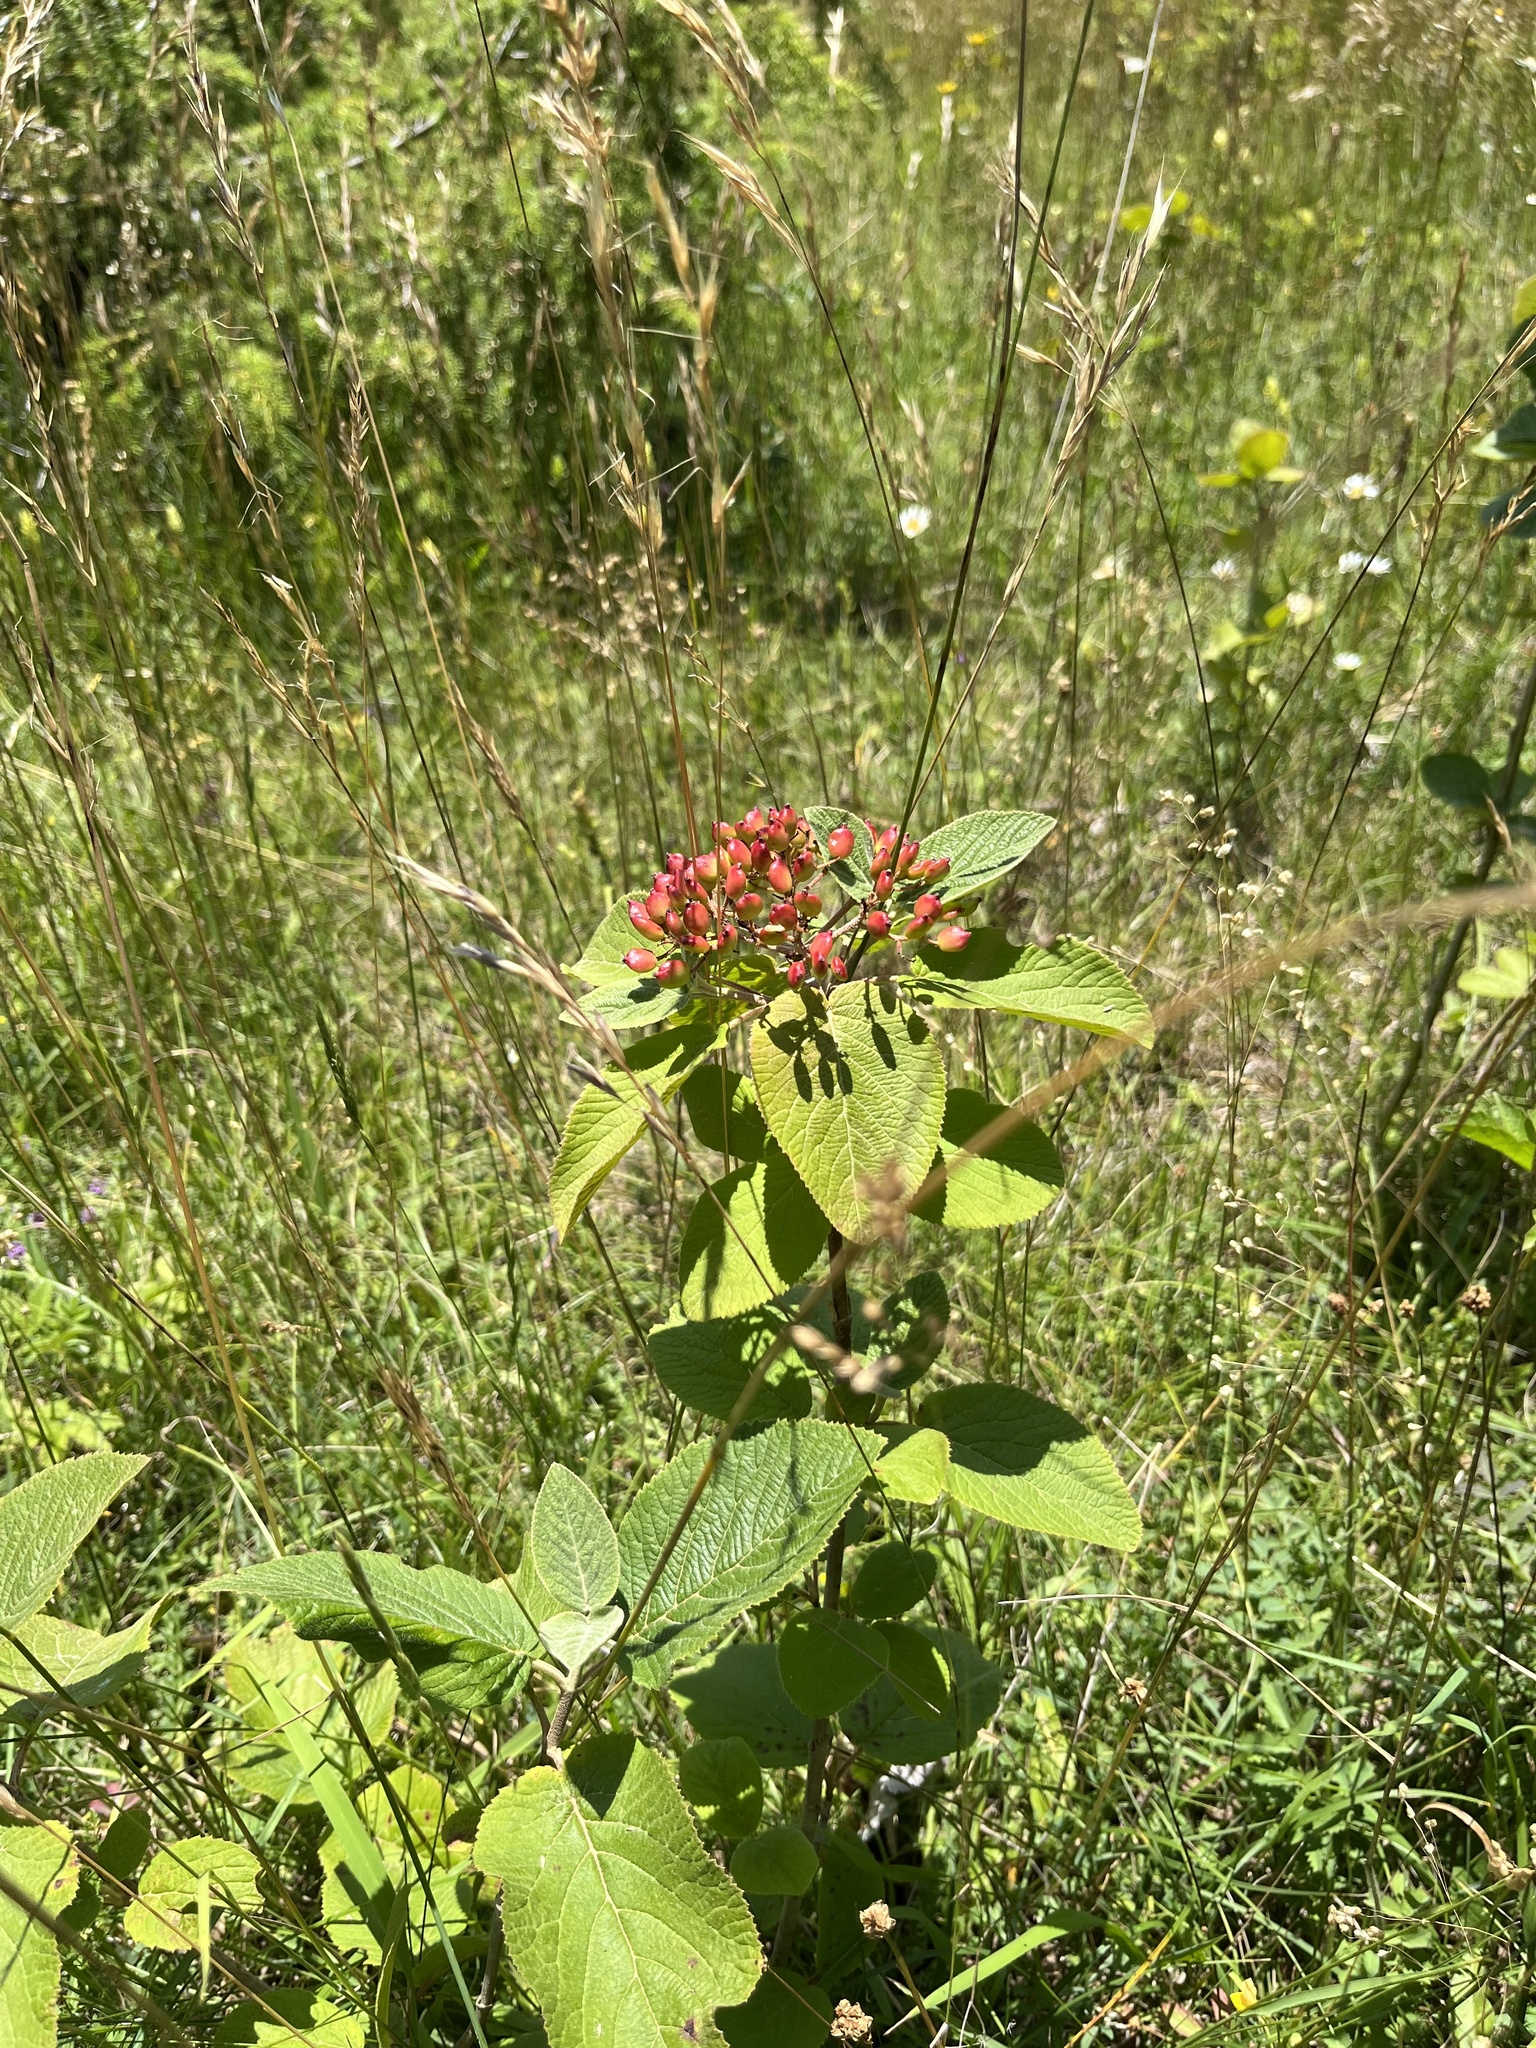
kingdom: Plantae
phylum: Tracheophyta
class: Magnoliopsida
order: Dipsacales
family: Viburnaceae
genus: Viburnum
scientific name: Viburnum lantana
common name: Wayfaring tree
